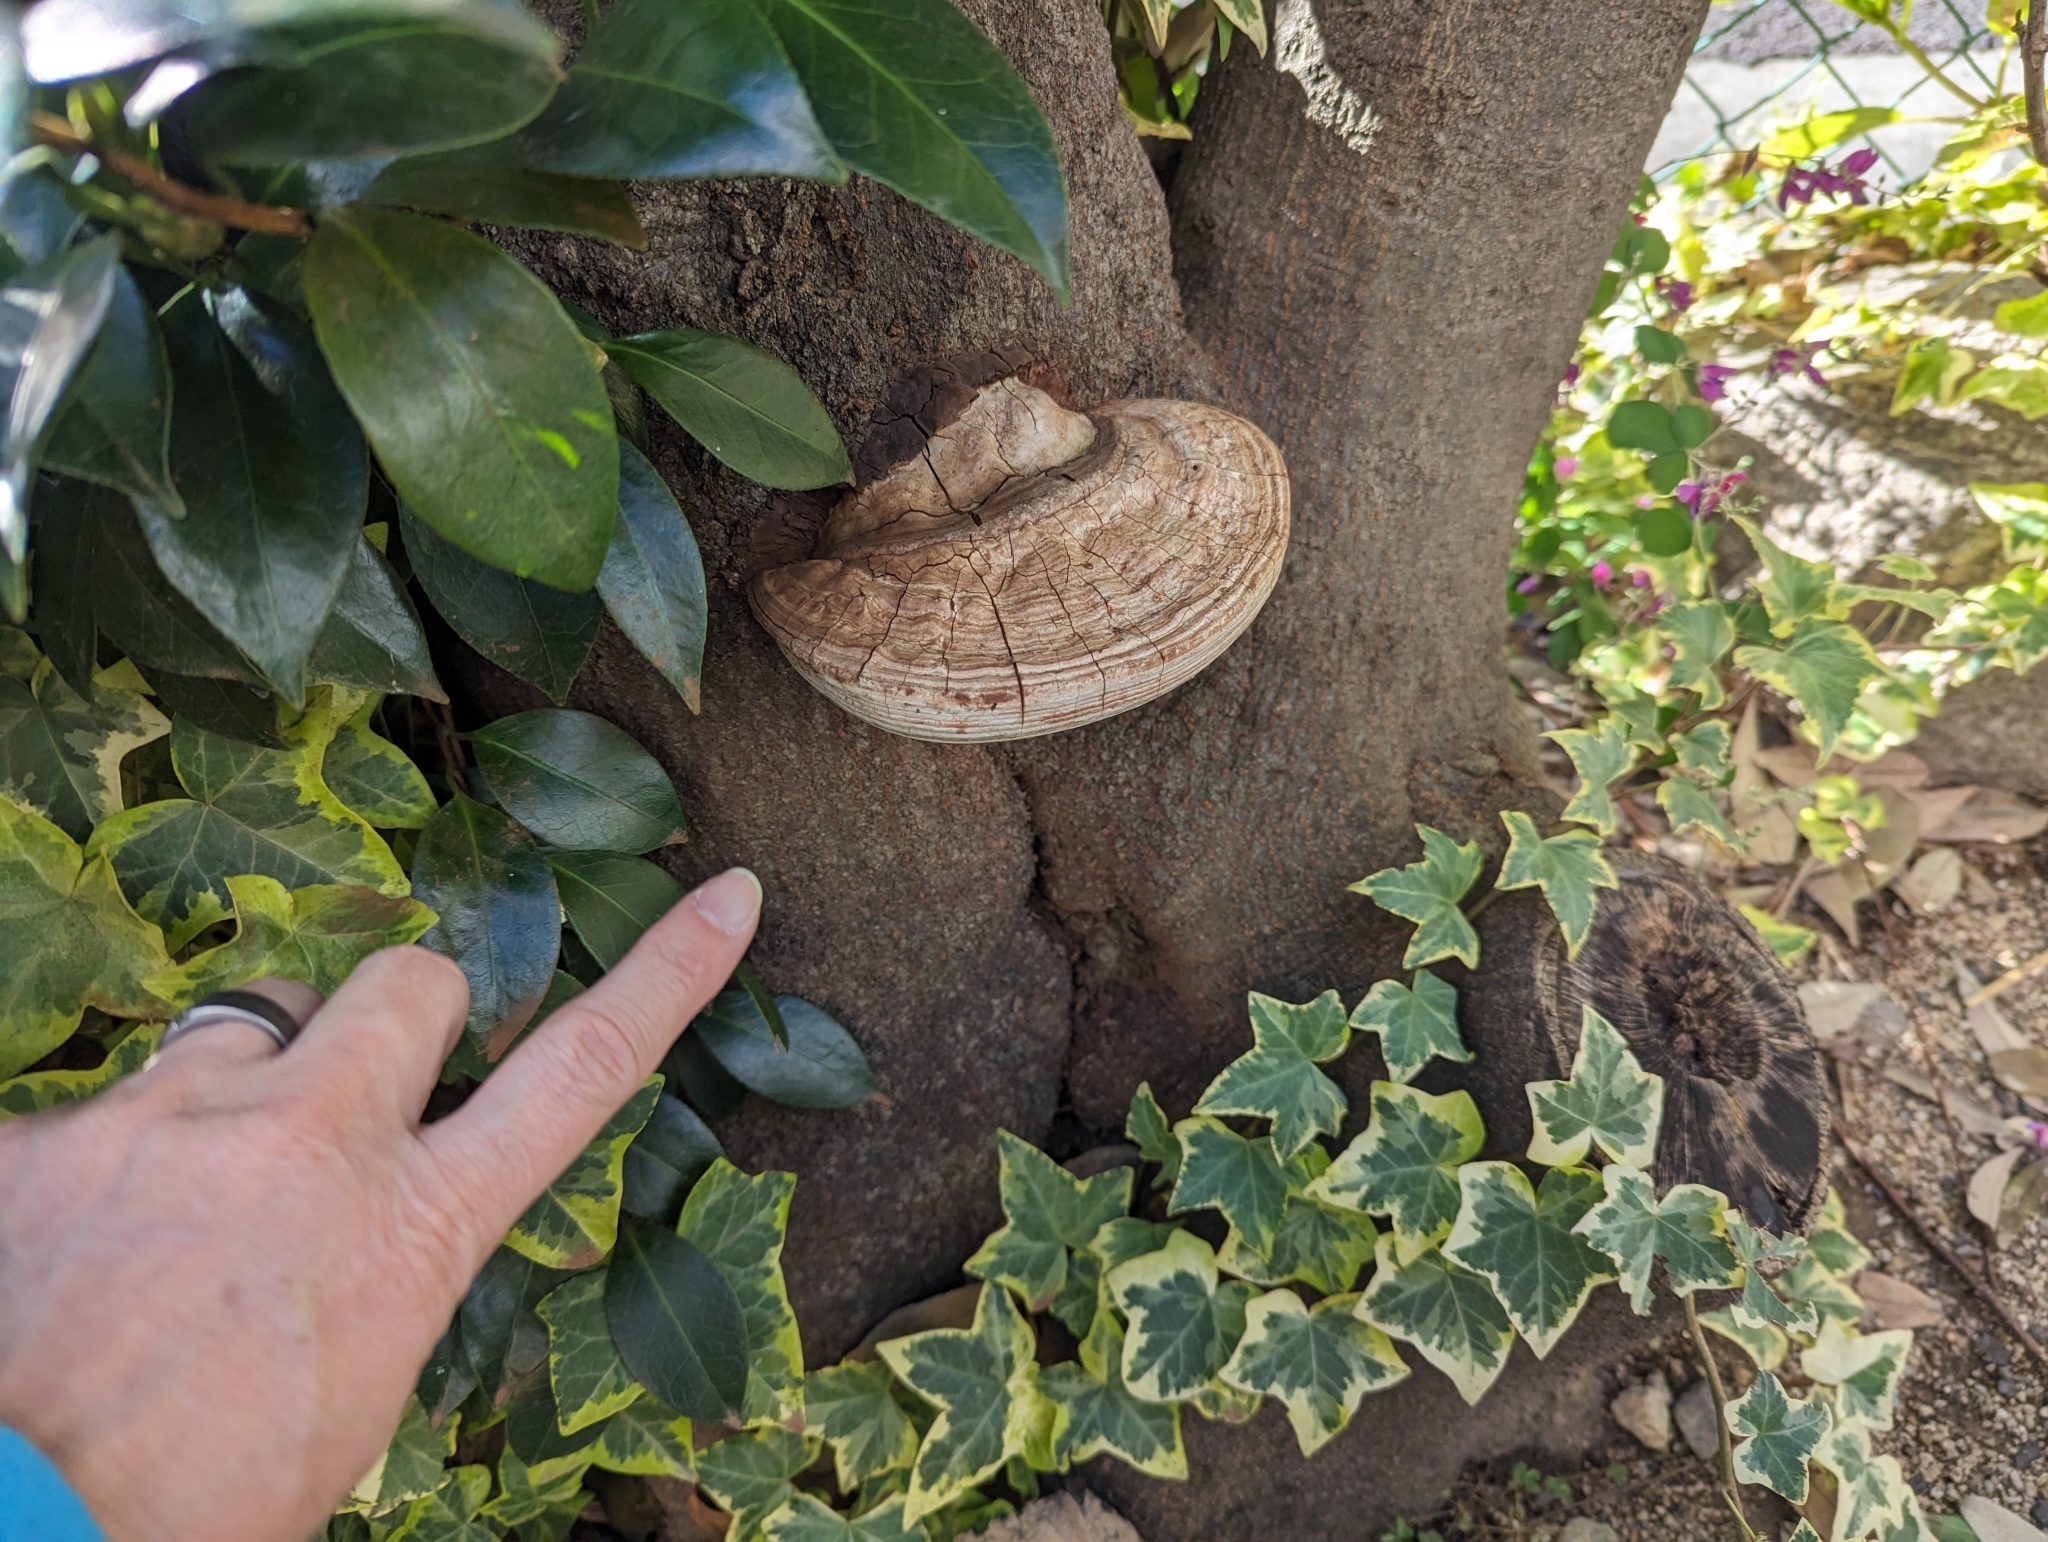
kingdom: Fungi
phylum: Basidiomycota
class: Agaricomycetes
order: Polyporales
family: Polyporaceae
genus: Ganoderma
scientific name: Ganoderma applanatum
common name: Artist's bracket
